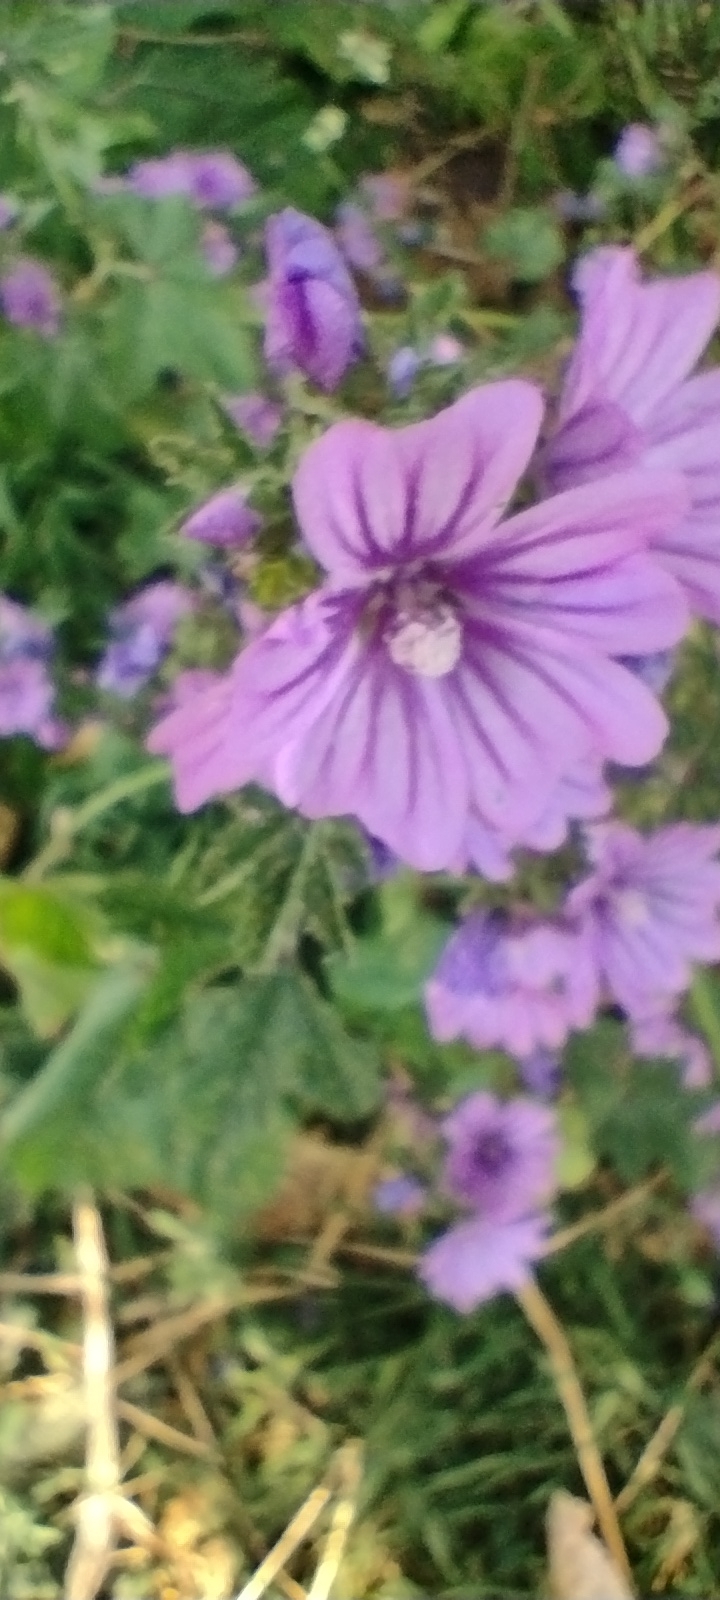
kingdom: Plantae
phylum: Tracheophyta
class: Magnoliopsida
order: Malvales
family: Malvaceae
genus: Malva
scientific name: Malva sylvestris
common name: Common mallow
